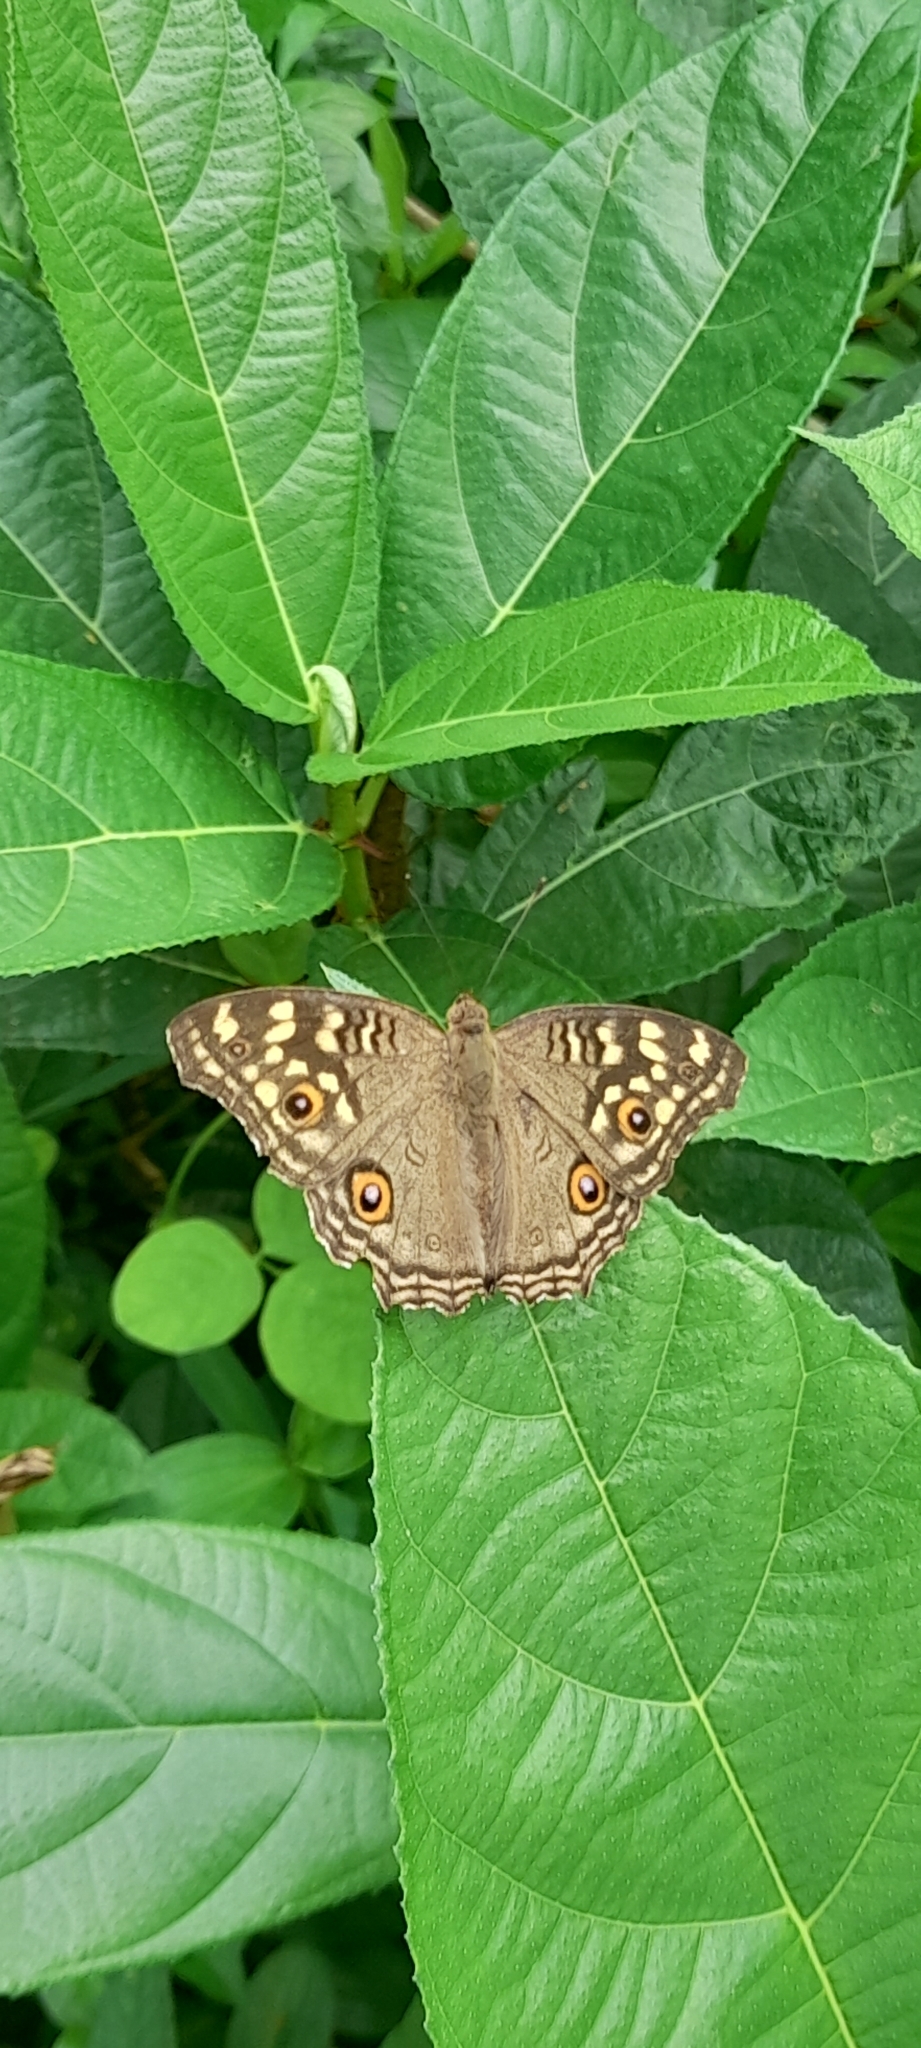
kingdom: Animalia
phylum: Arthropoda
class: Insecta
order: Lepidoptera
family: Nymphalidae
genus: Junonia
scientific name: Junonia lemonias
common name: Lemon pansy
